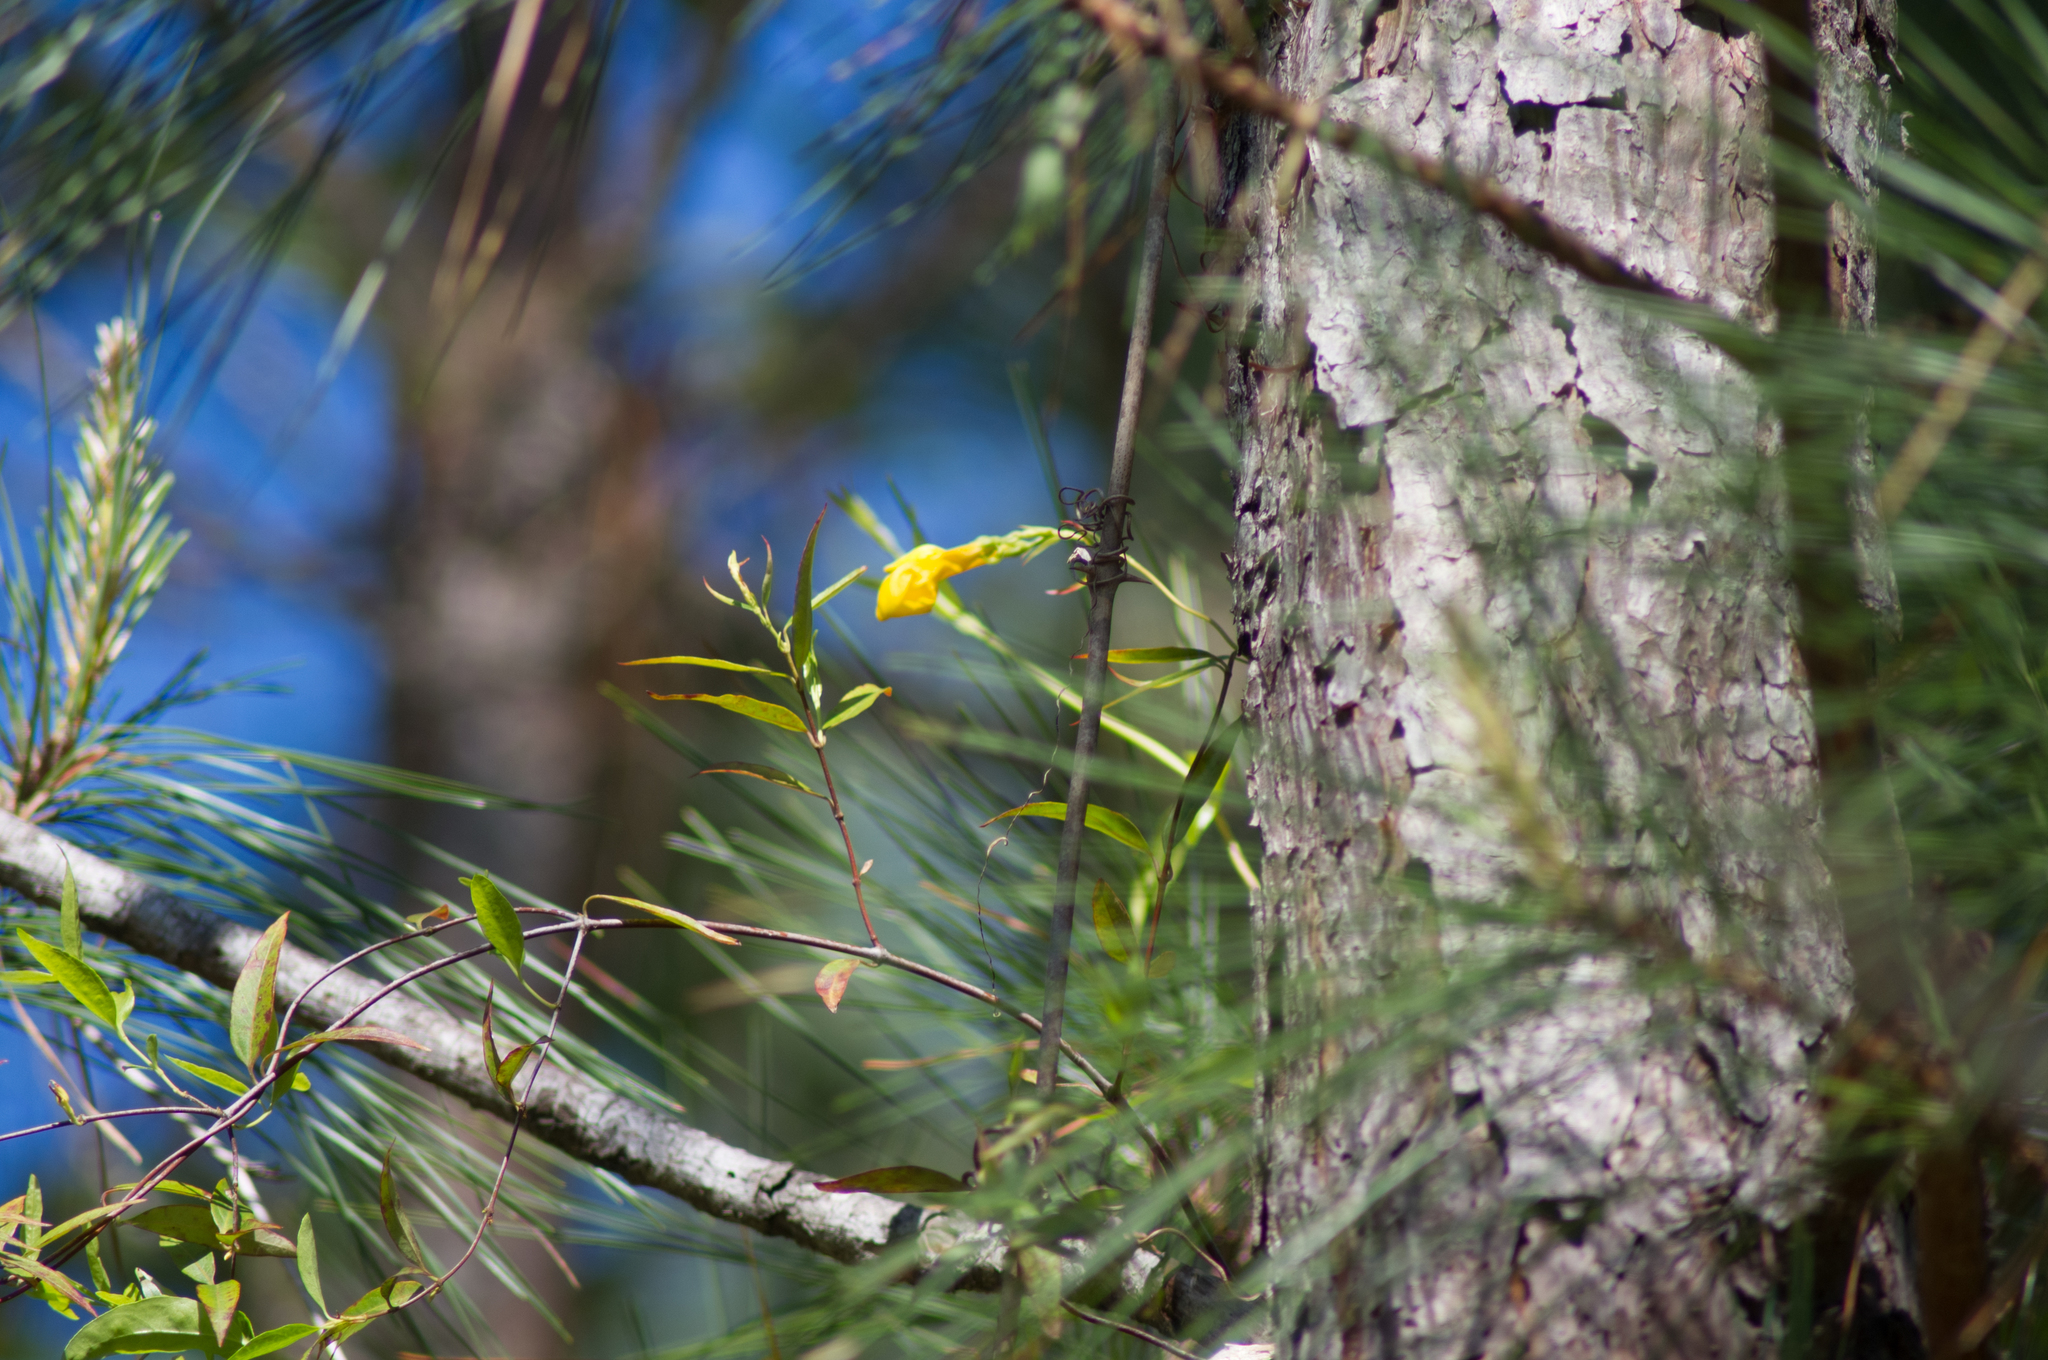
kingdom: Plantae
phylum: Tracheophyta
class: Magnoliopsida
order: Gentianales
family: Gelsemiaceae
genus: Gelsemium
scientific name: Gelsemium sempervirens
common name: Carolina-jasmine
